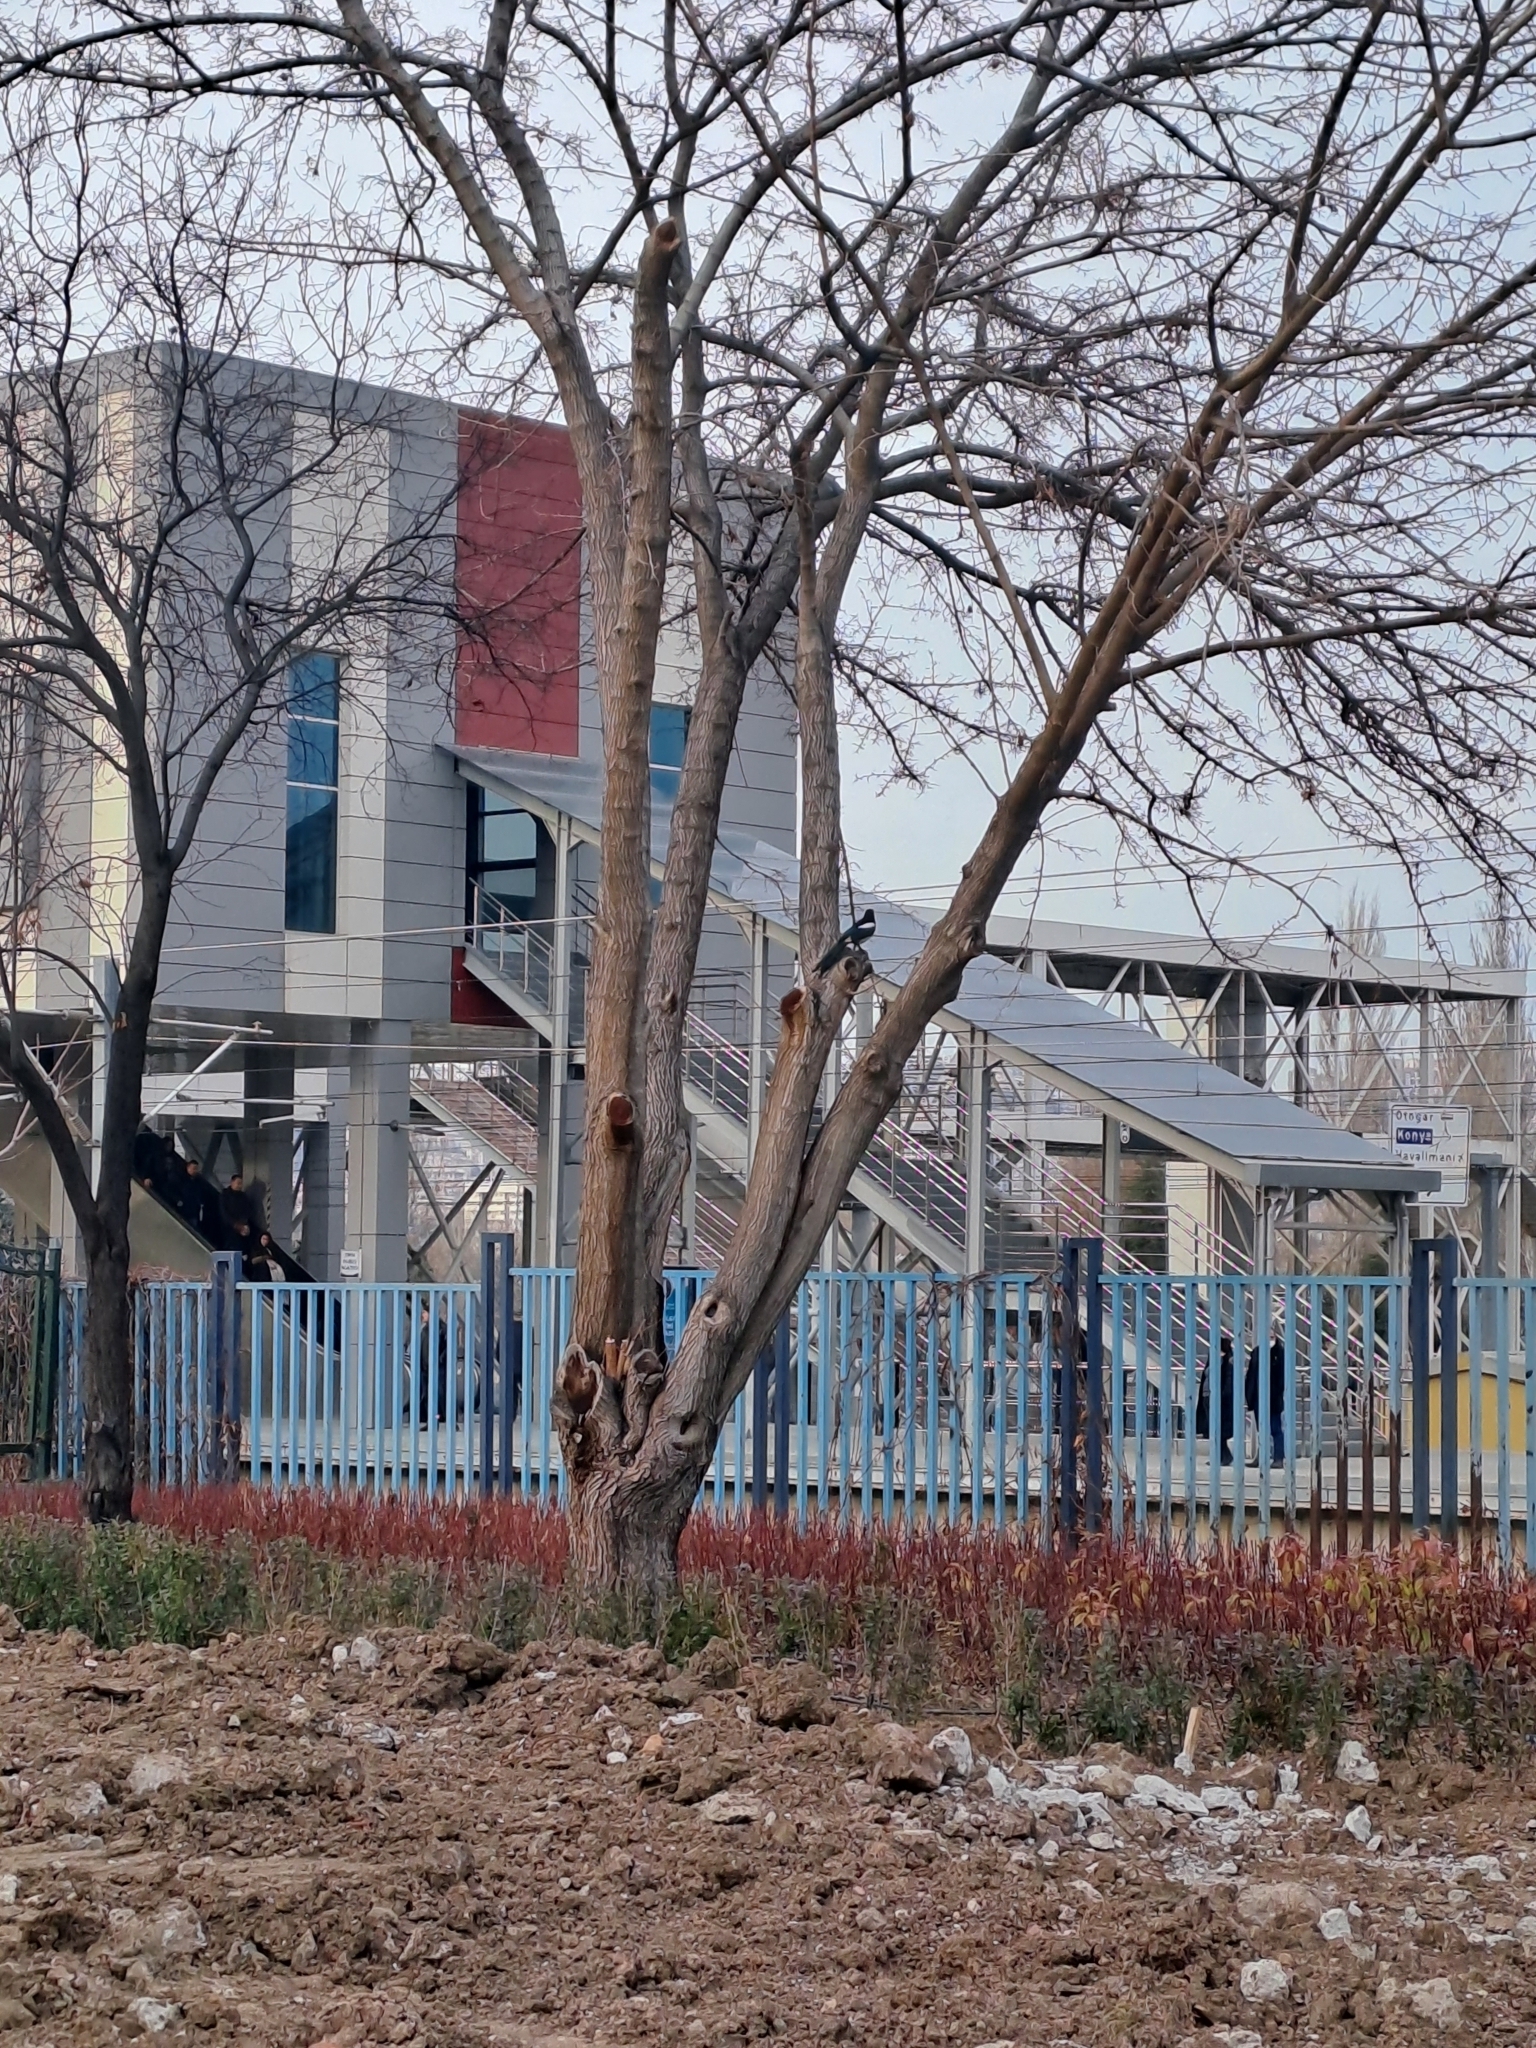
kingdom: Animalia
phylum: Chordata
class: Aves
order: Passeriformes
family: Corvidae
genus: Pica
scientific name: Pica pica
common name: Eurasian magpie
